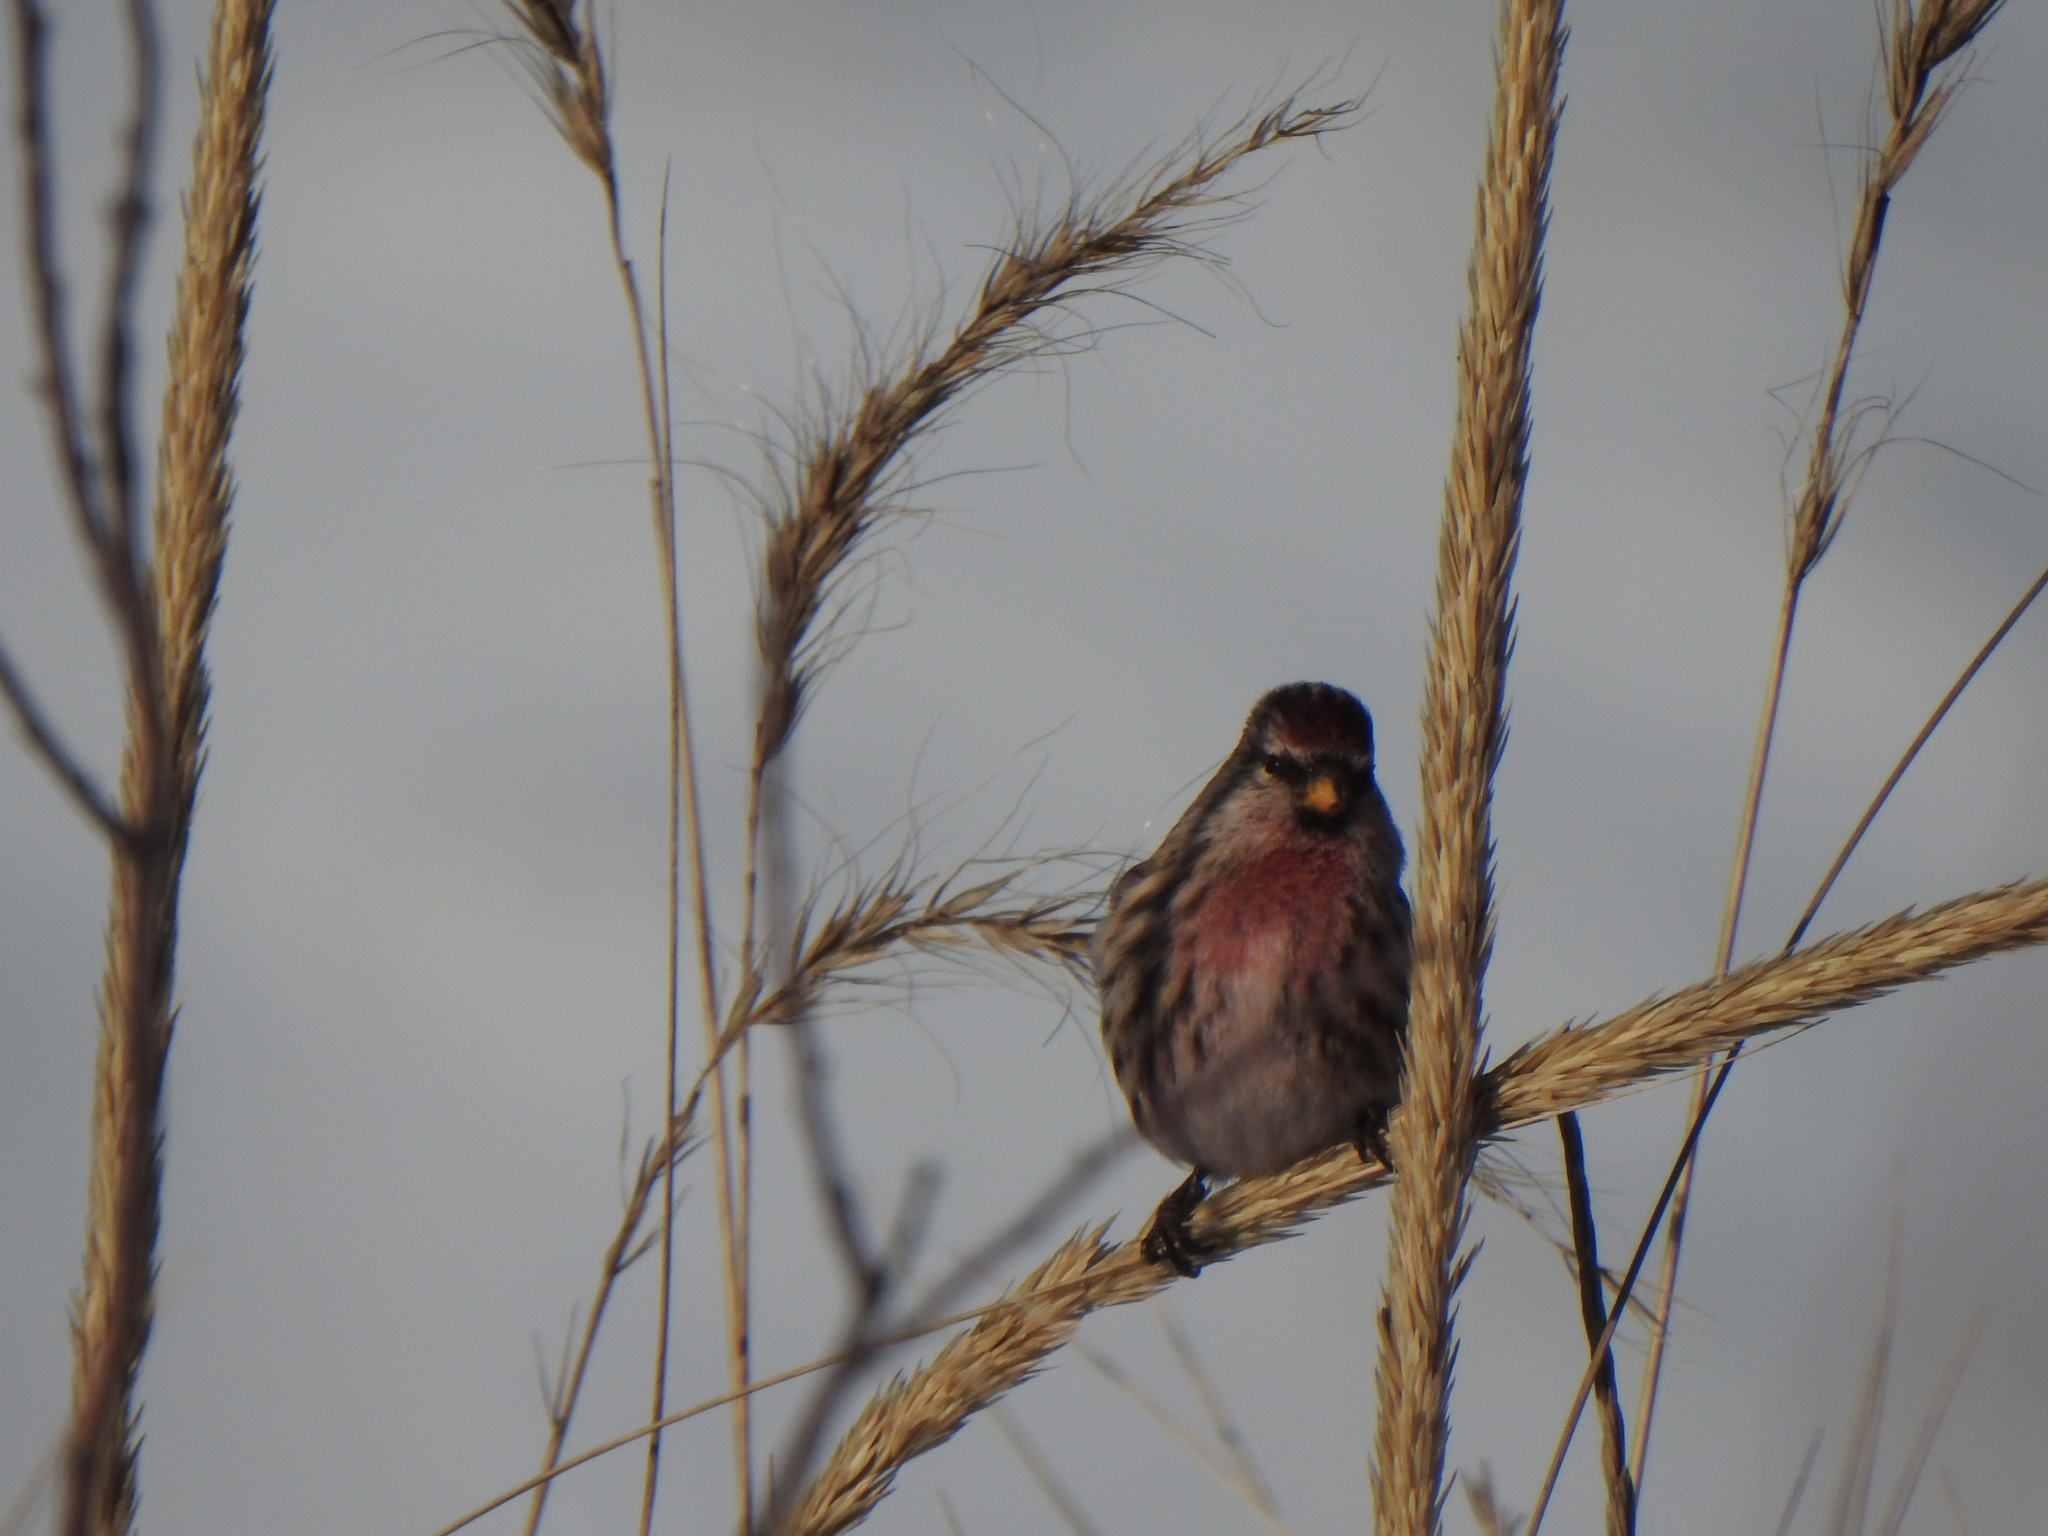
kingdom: Animalia
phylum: Chordata
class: Aves
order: Passeriformes
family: Fringillidae
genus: Acanthis
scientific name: Acanthis flammea
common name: Common redpoll
